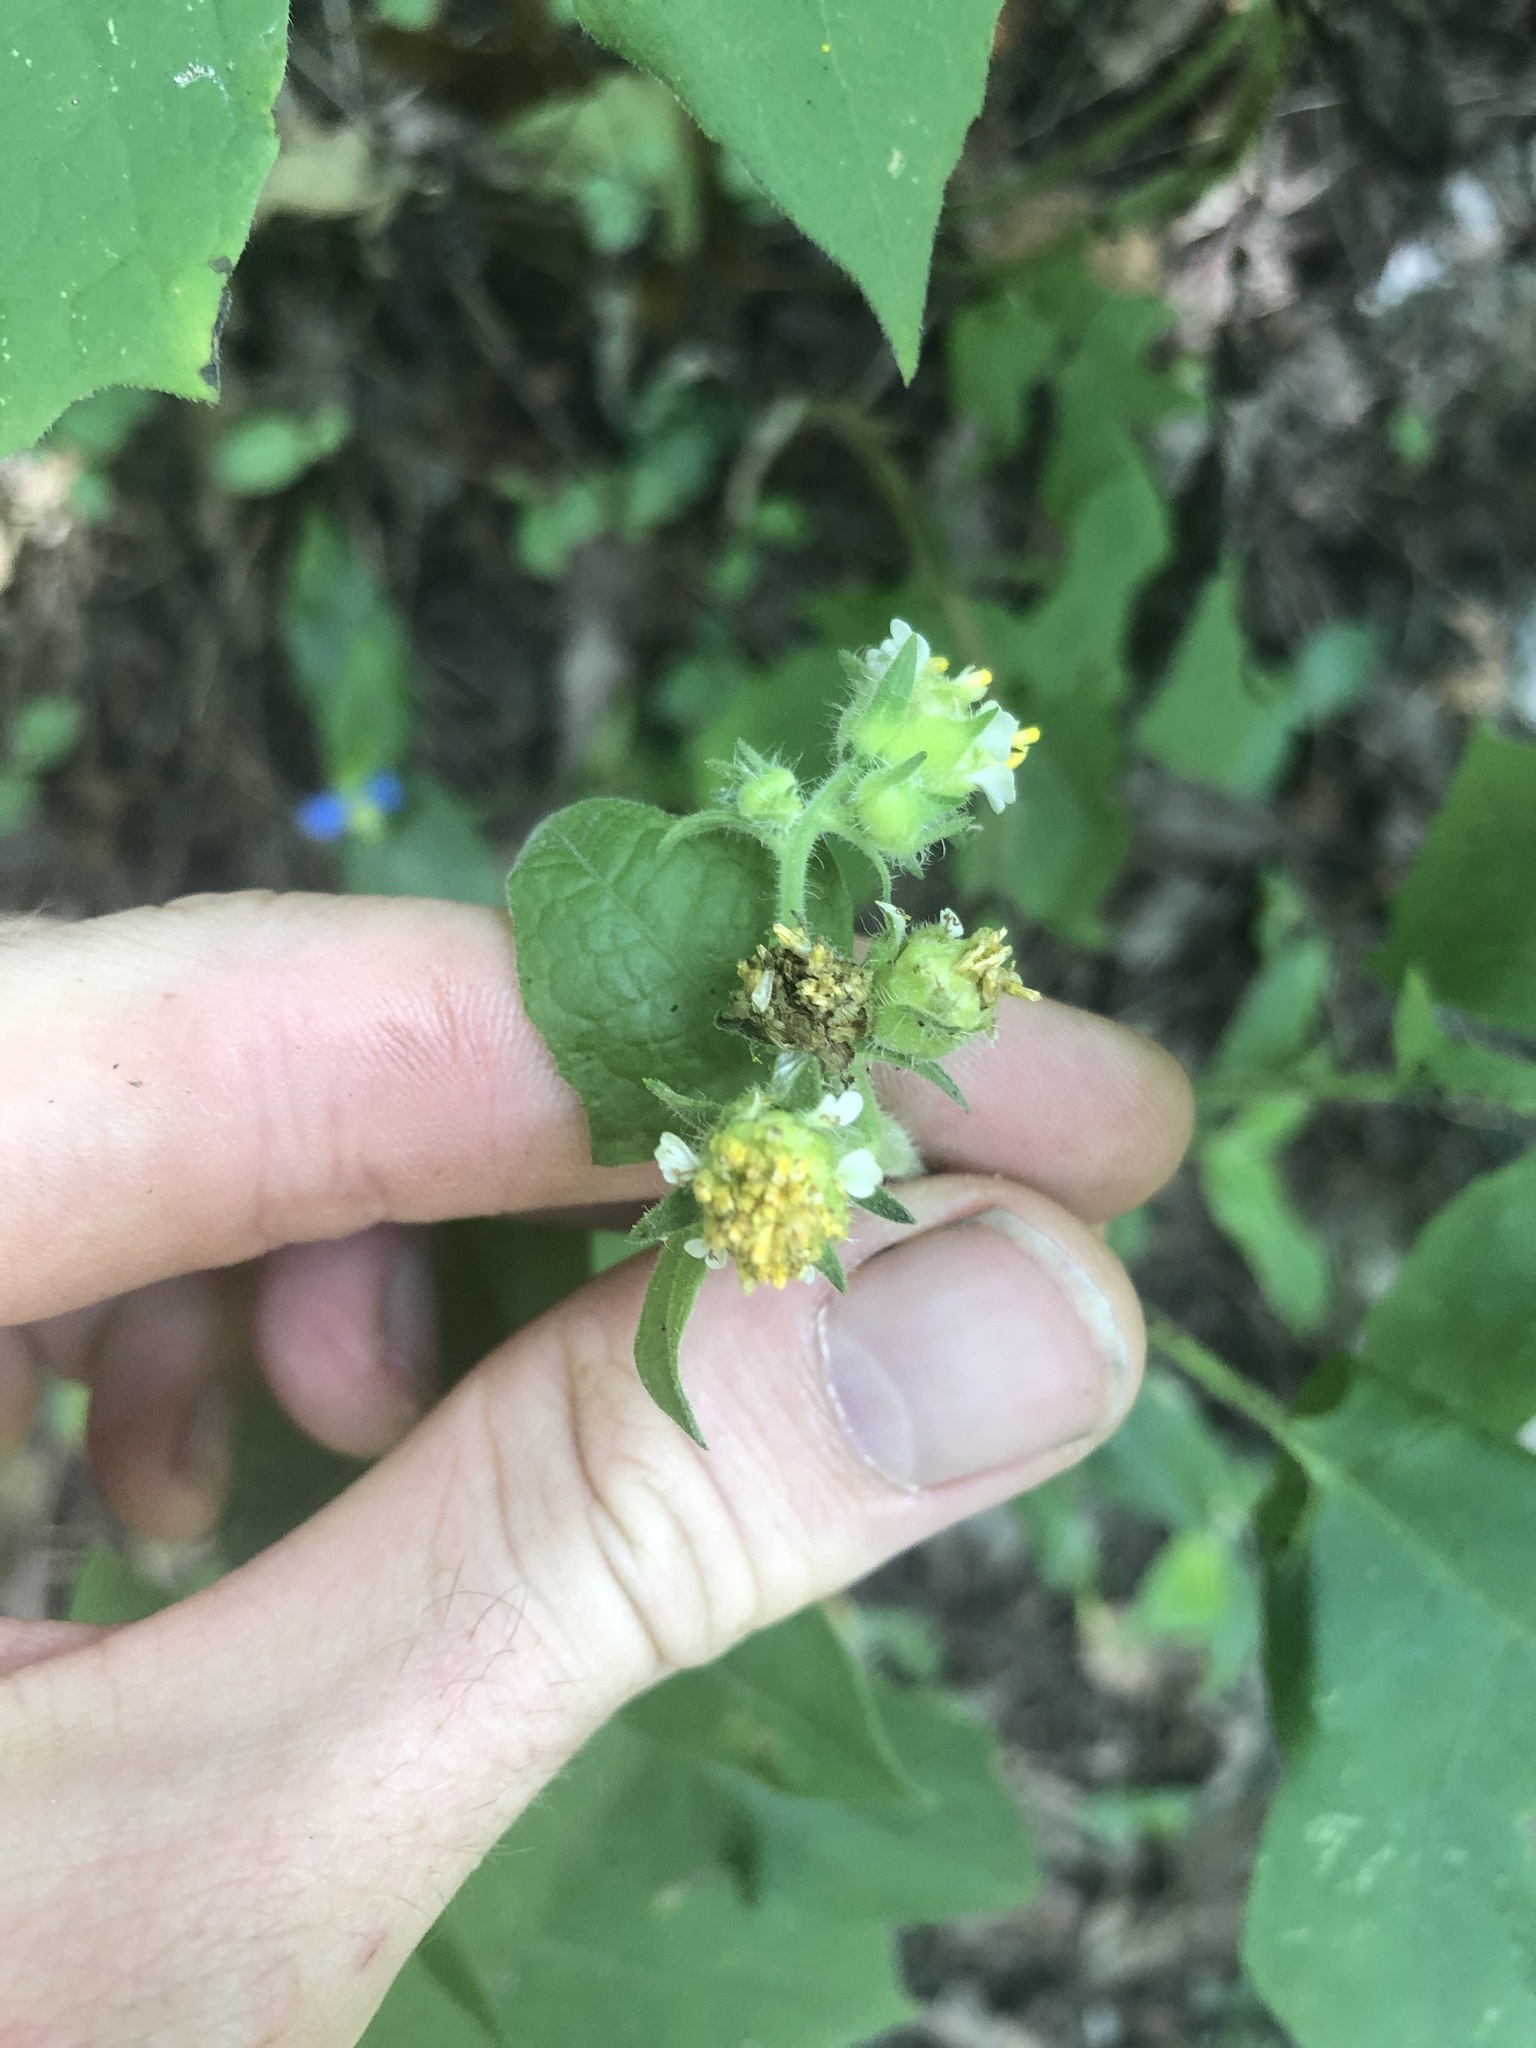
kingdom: Plantae
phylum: Tracheophyta
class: Magnoliopsida
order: Asterales
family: Asteraceae
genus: Polymnia
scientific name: Polymnia canadensis
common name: Pale-flowered leafcup
